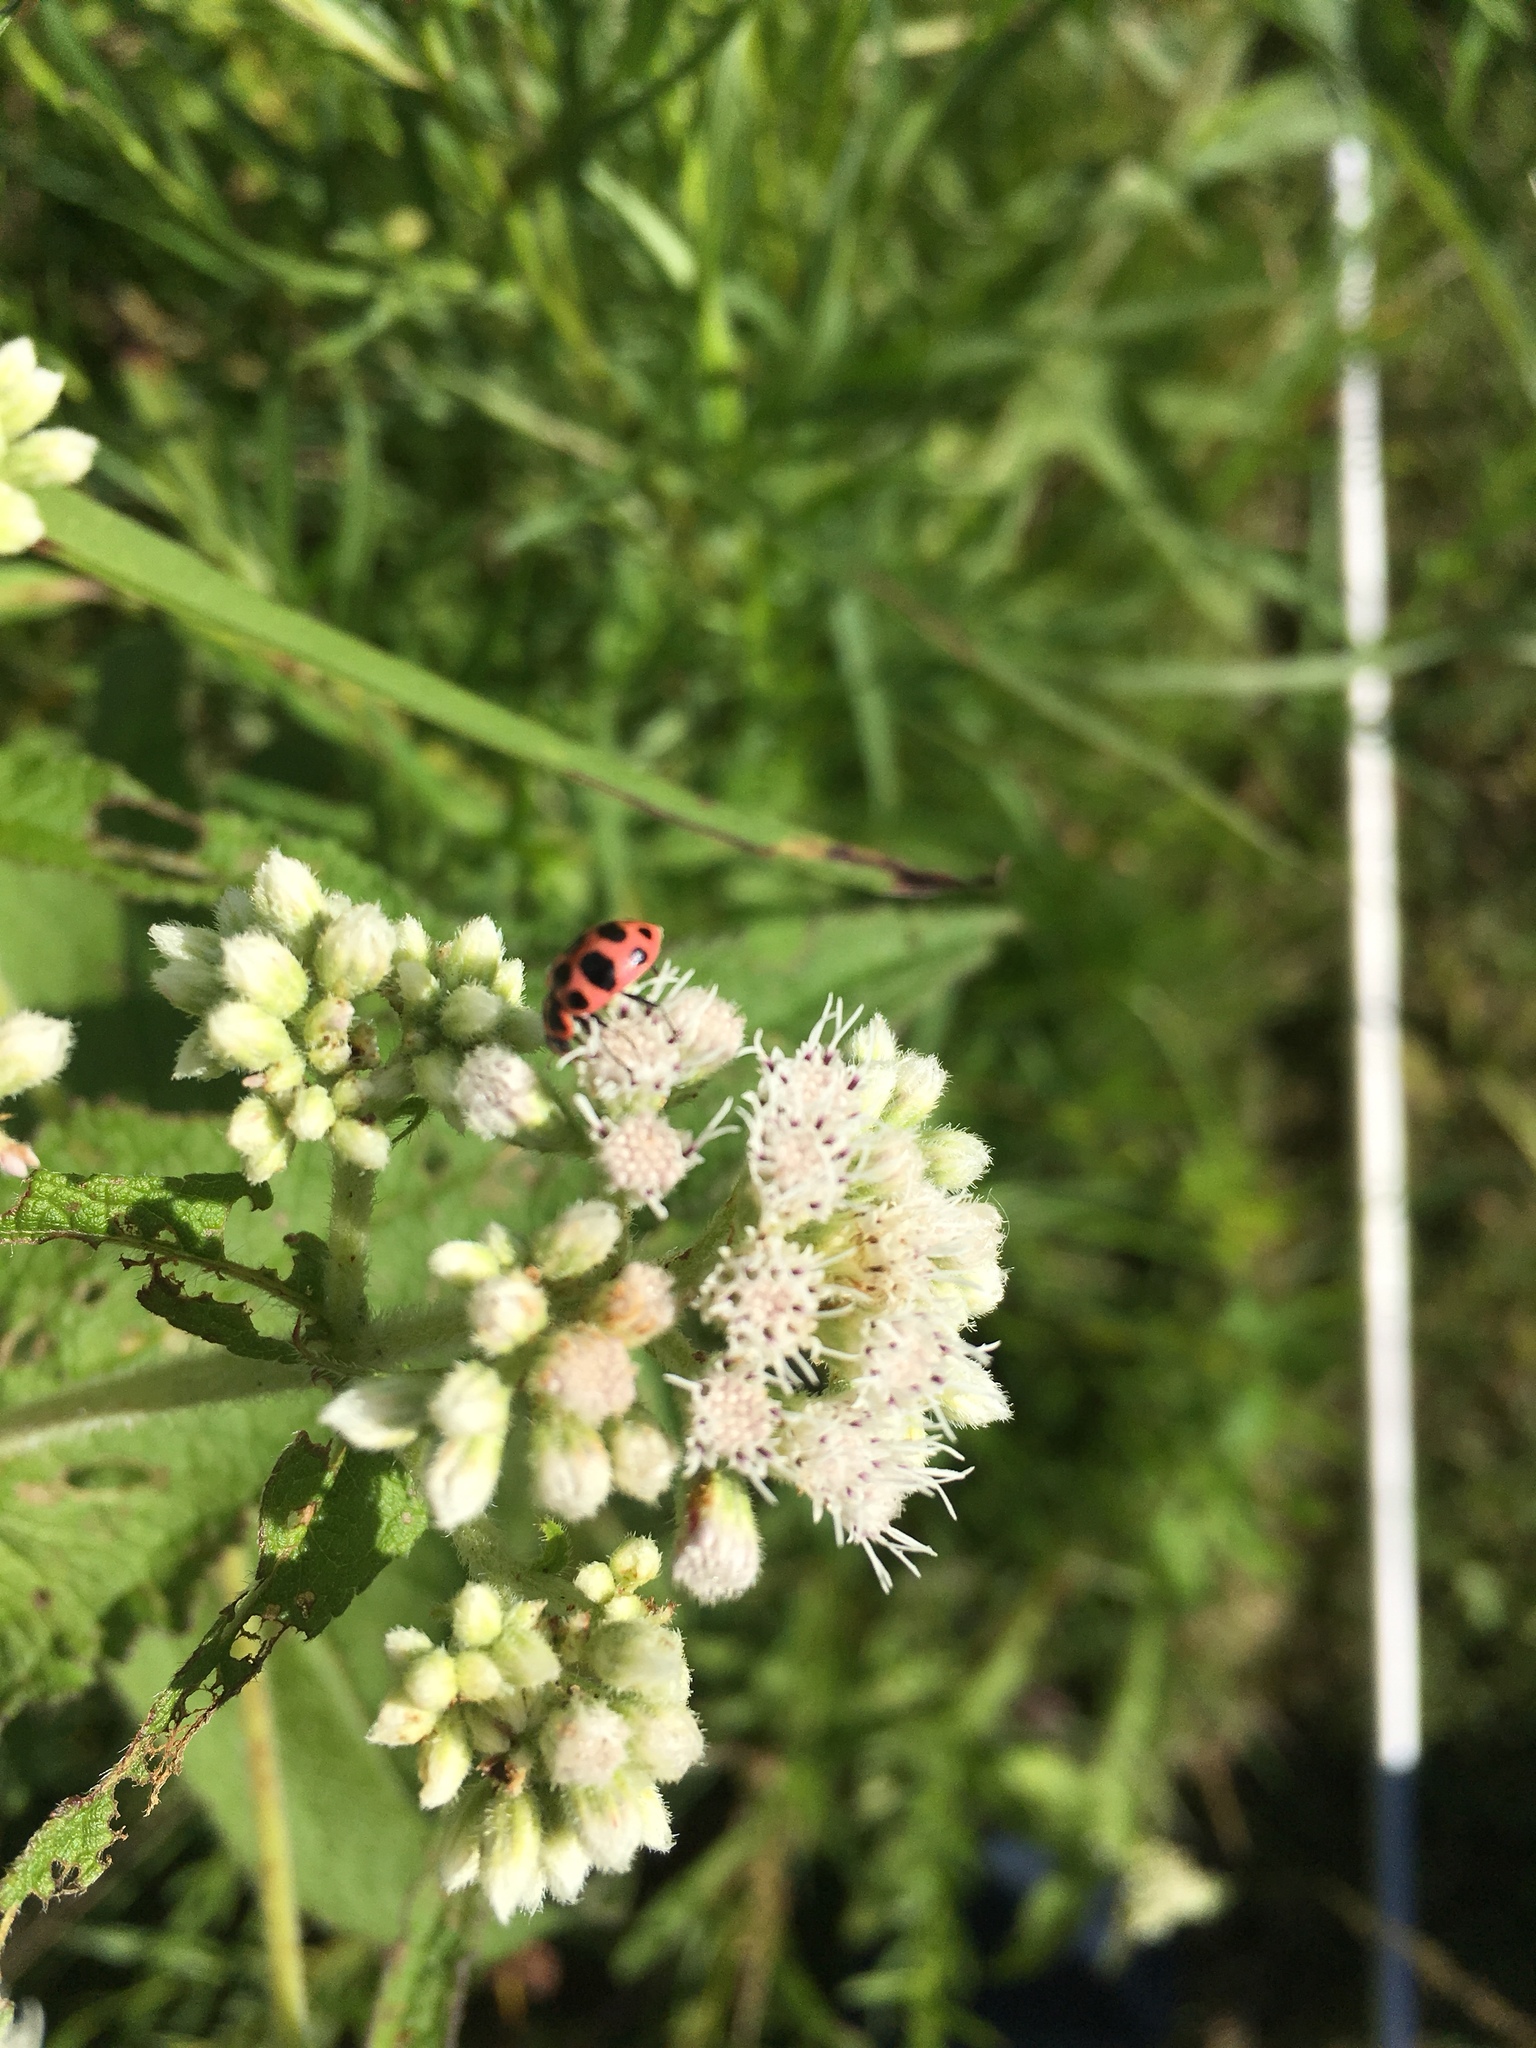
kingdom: Animalia
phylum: Arthropoda
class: Insecta
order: Coleoptera
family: Coccinellidae
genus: Coleomegilla
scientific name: Coleomegilla maculata
